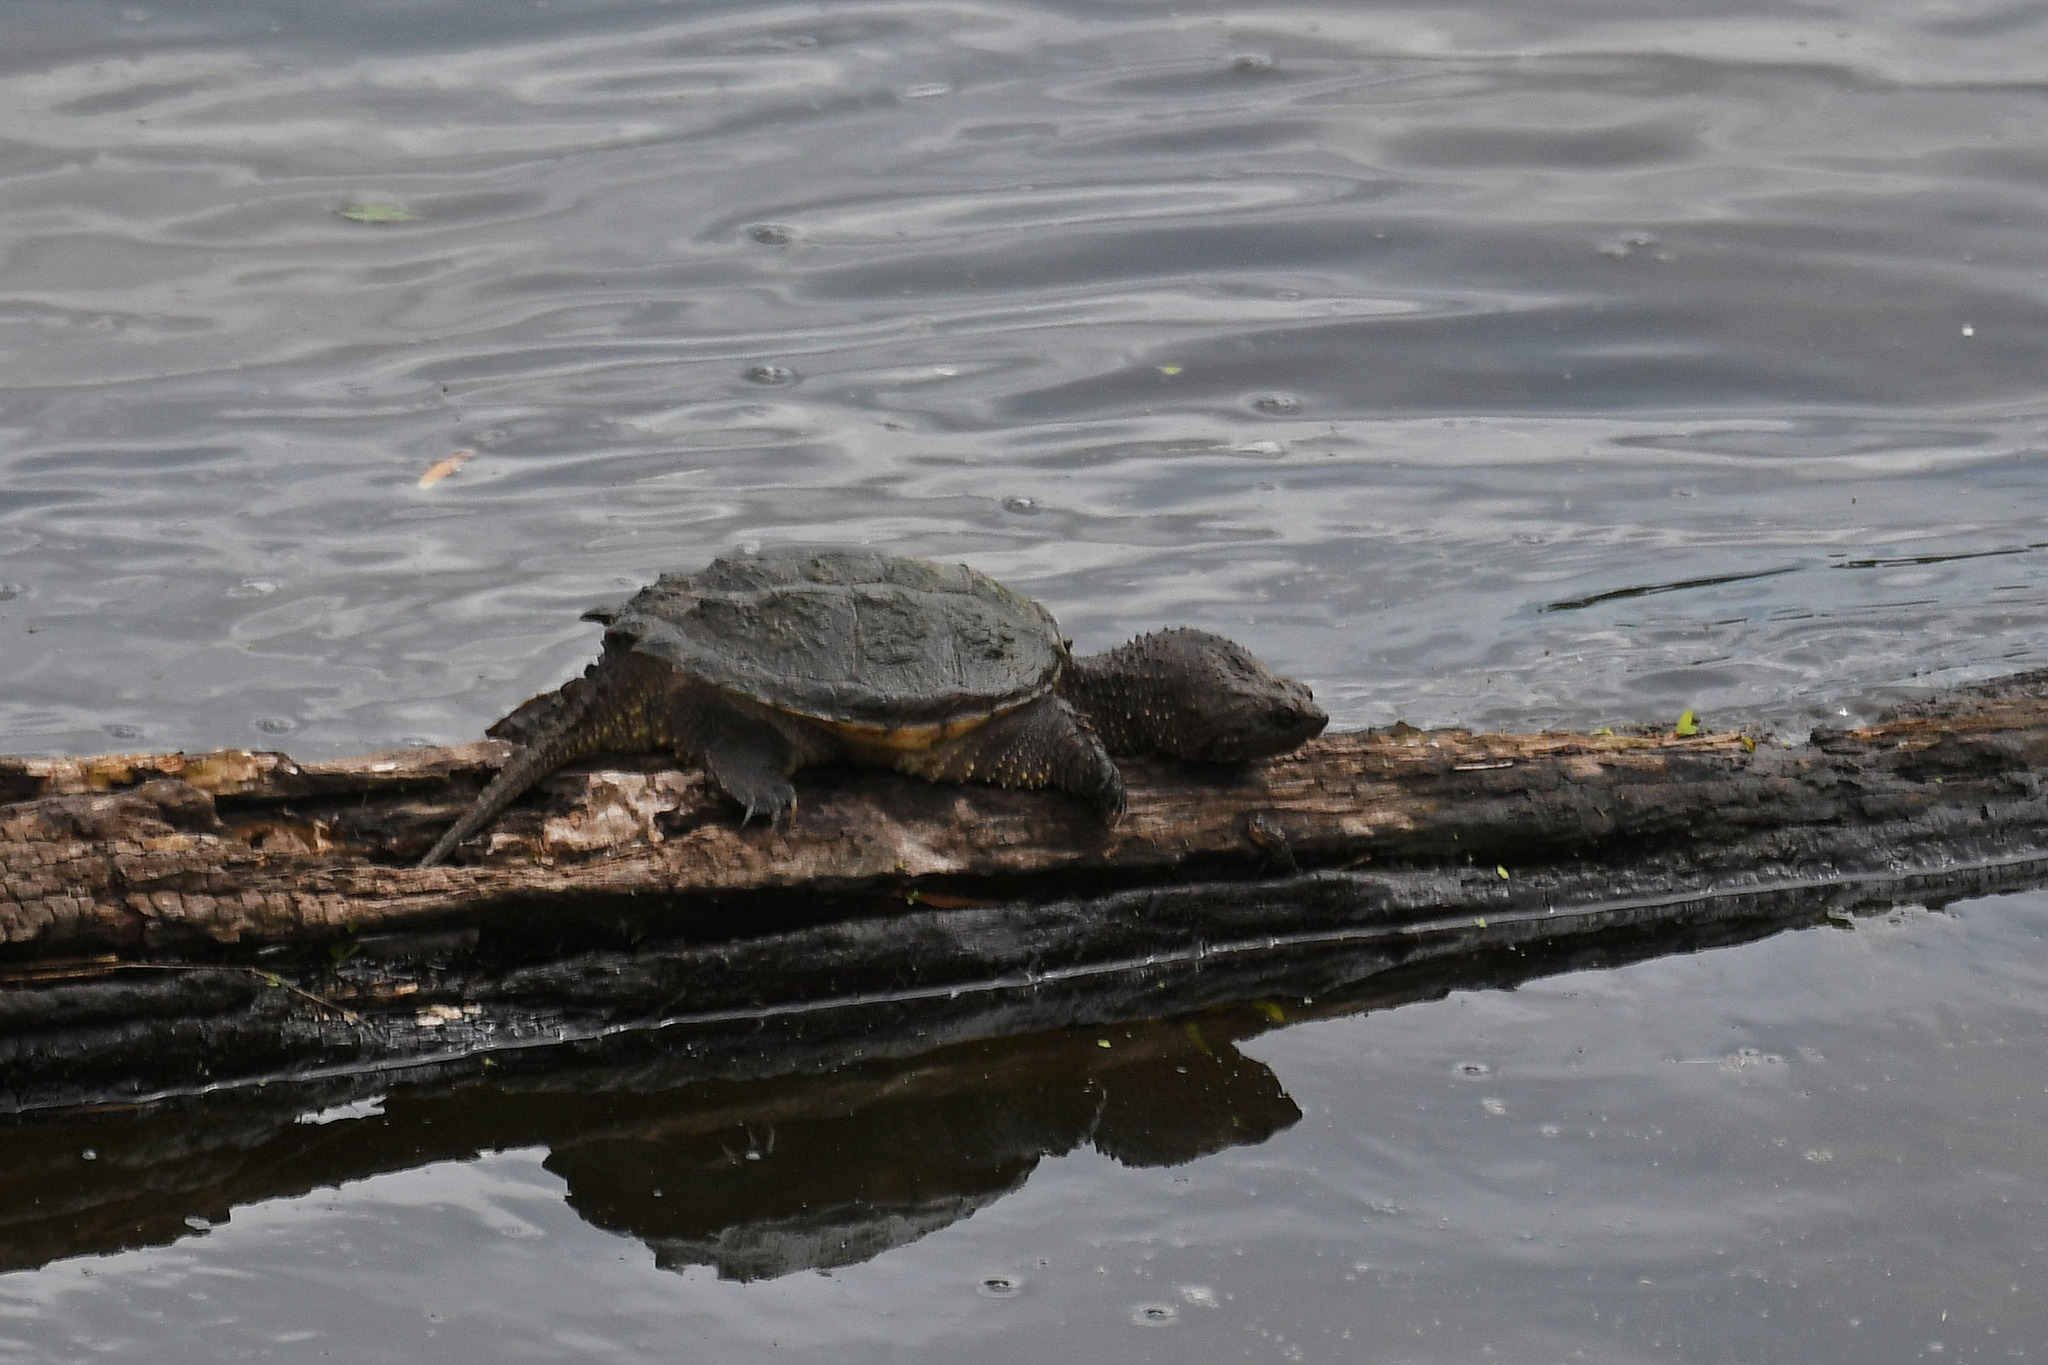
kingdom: Animalia
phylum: Chordata
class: Testudines
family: Chelydridae
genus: Chelydra
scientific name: Chelydra serpentina
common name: Common snapping turtle
